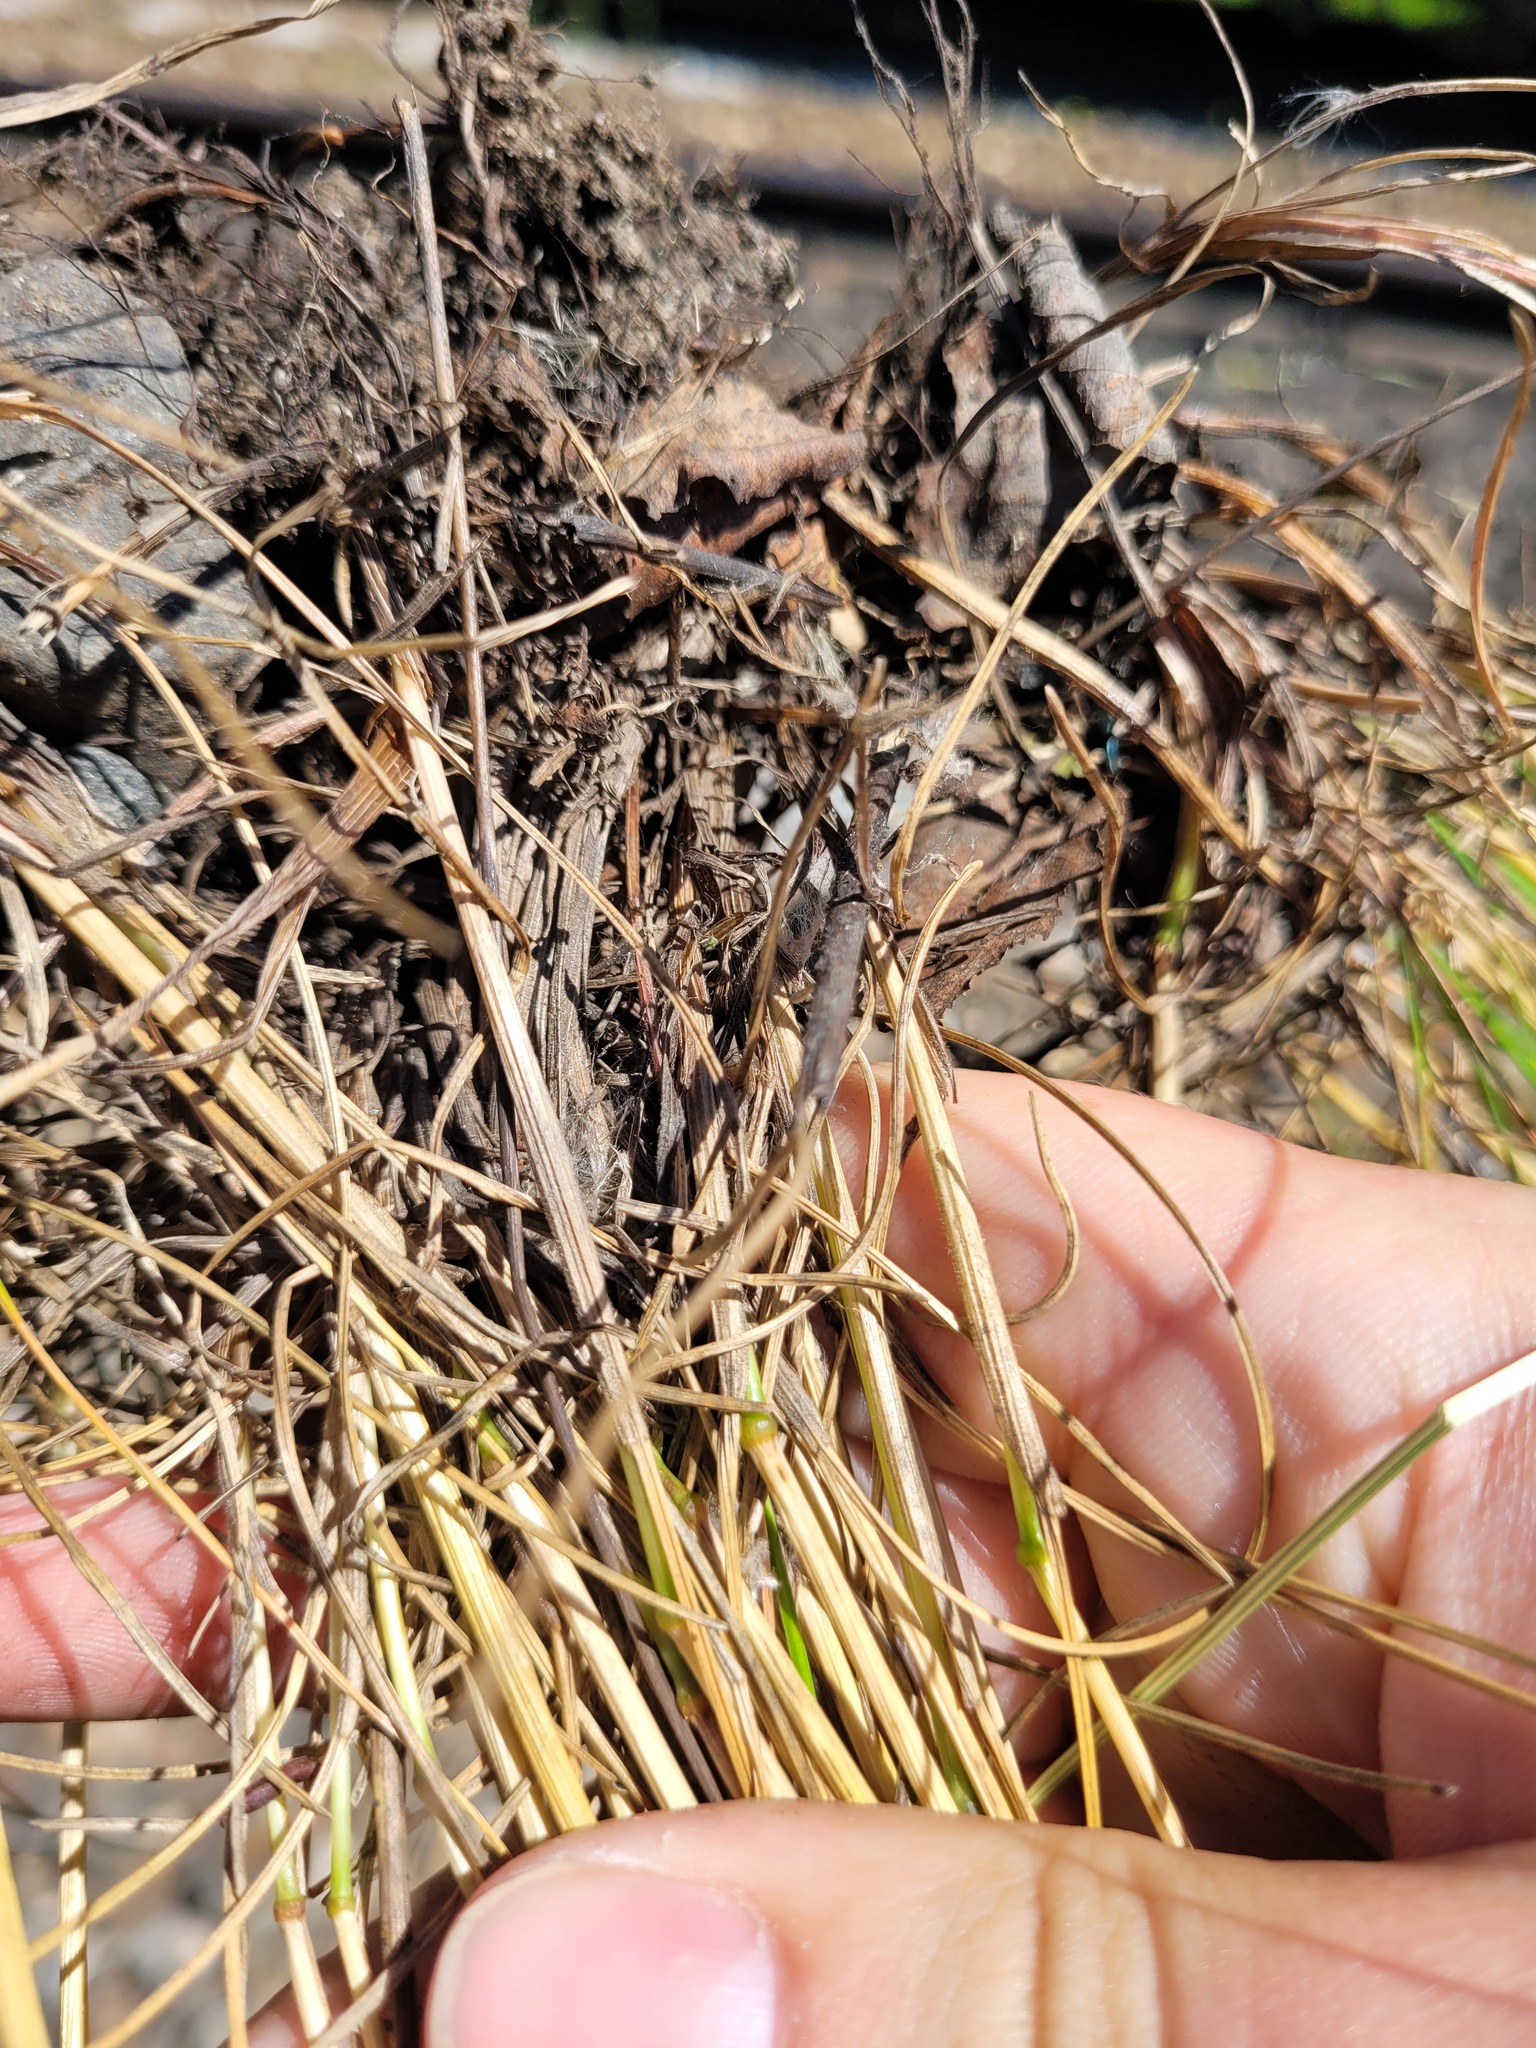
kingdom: Plantae
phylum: Tracheophyta
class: Liliopsida
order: Poales
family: Poaceae
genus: Festuca
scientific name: Festuca rubra
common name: Red fescue
